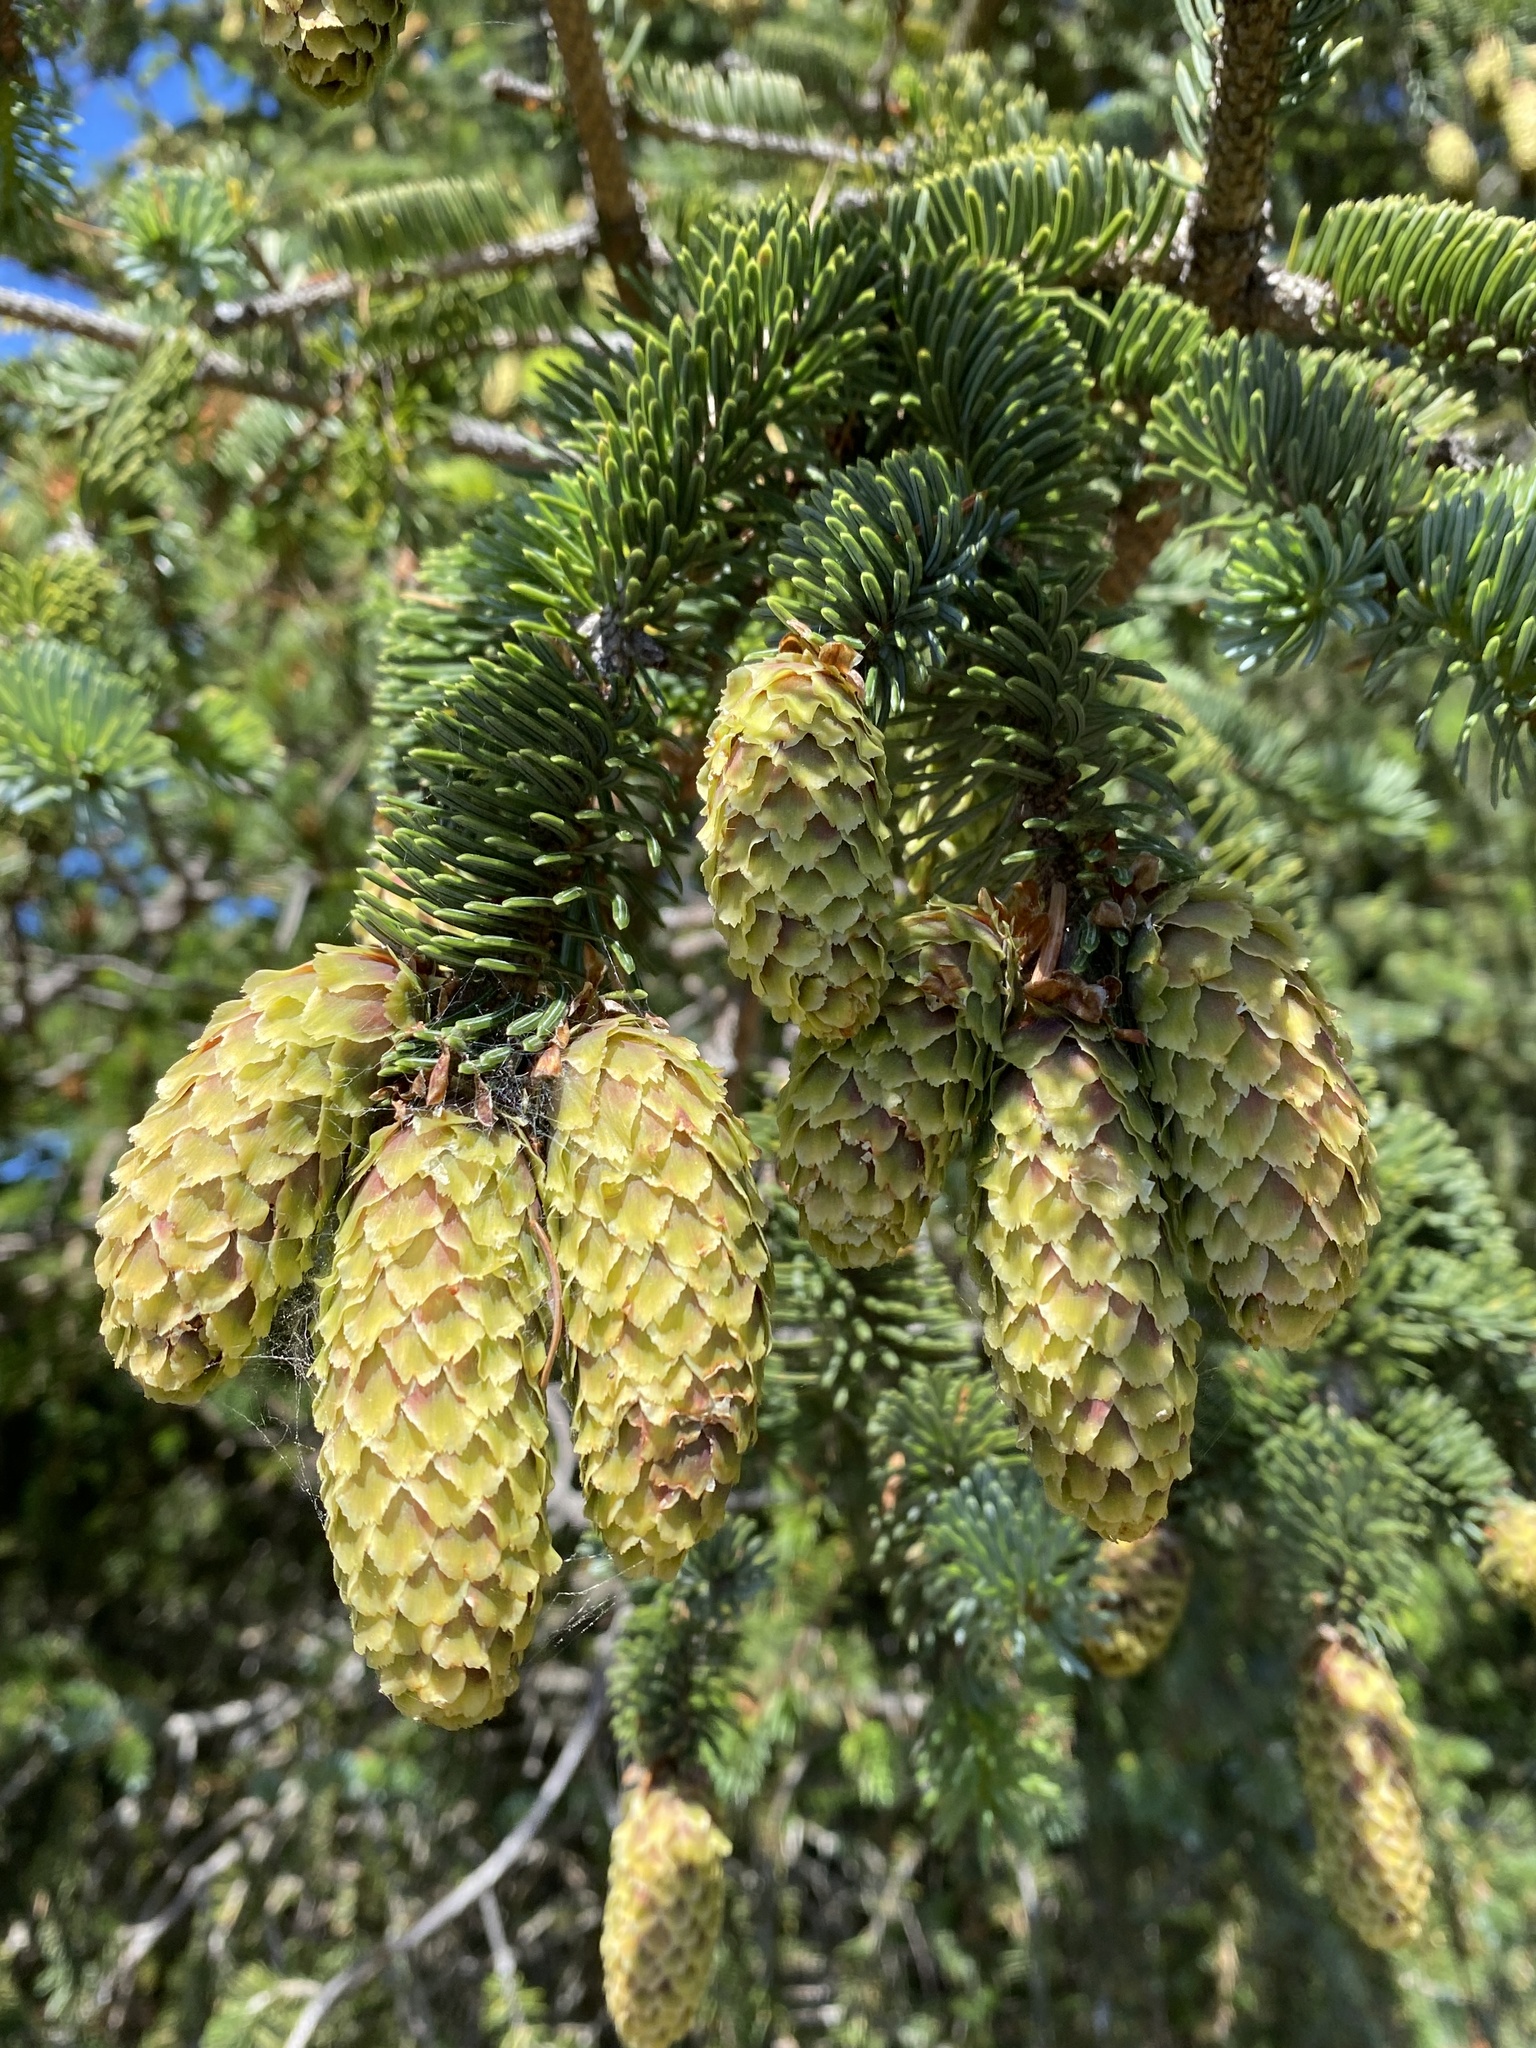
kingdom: Plantae
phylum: Tracheophyta
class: Pinopsida
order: Pinales
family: Pinaceae
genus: Picea
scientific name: Picea sitchensis
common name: Sitka spruce
